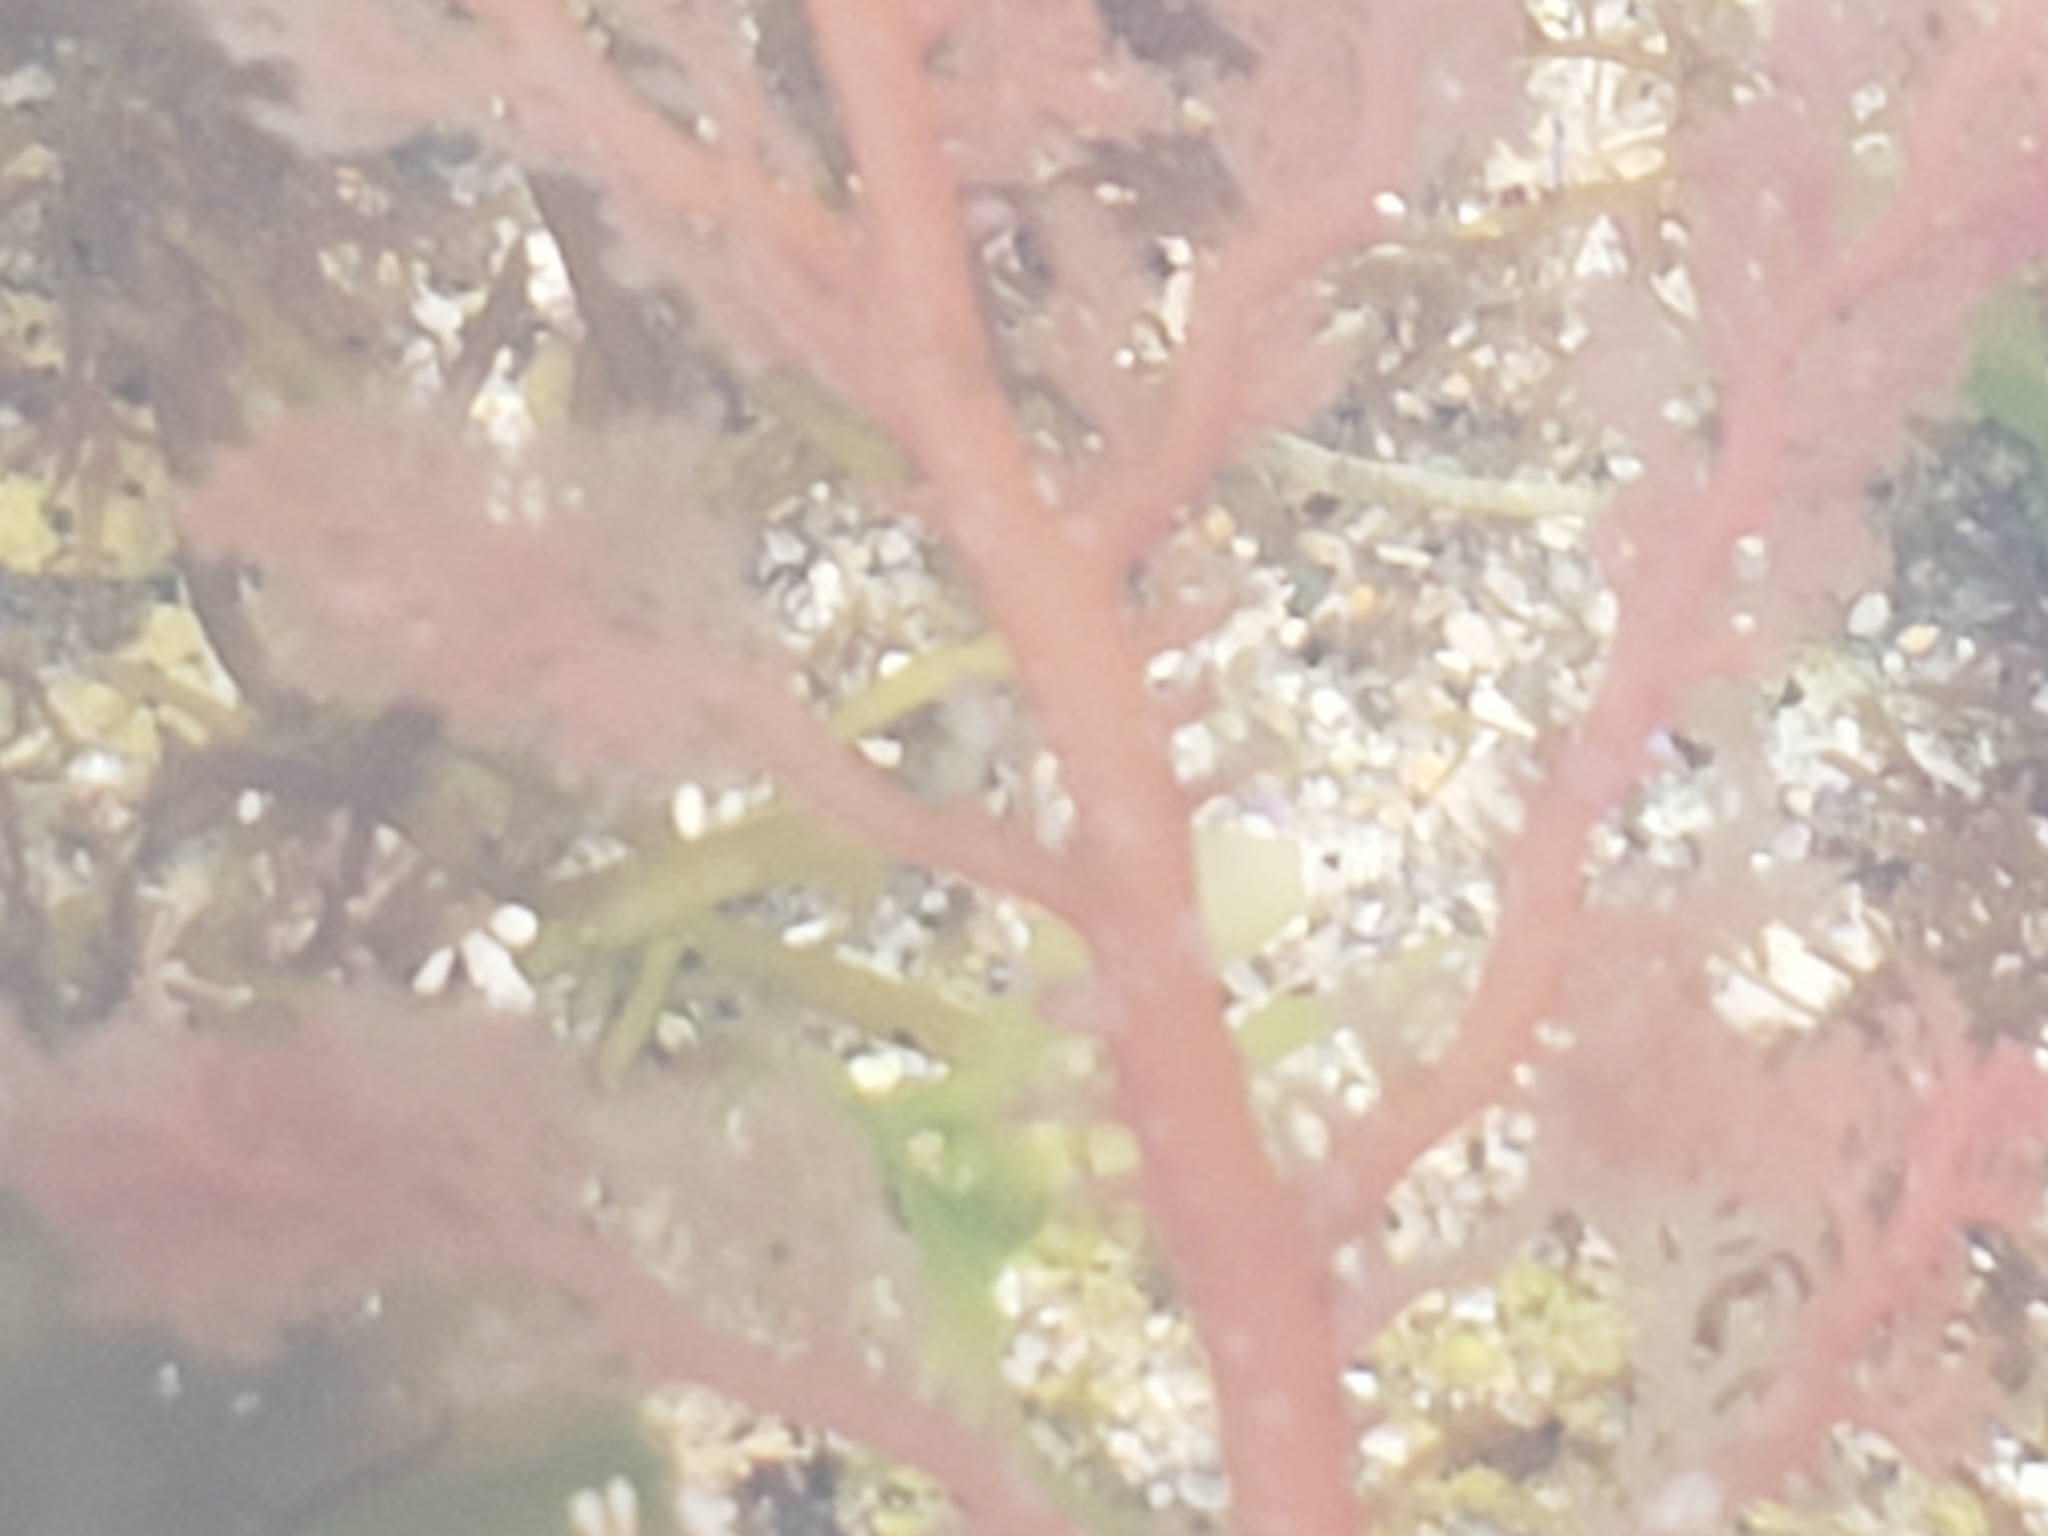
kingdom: Plantae
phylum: Rhodophyta
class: Florideophyceae
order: Plocamiales
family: Plocamiaceae
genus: Plocamium
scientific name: Plocamium cartilagineum
